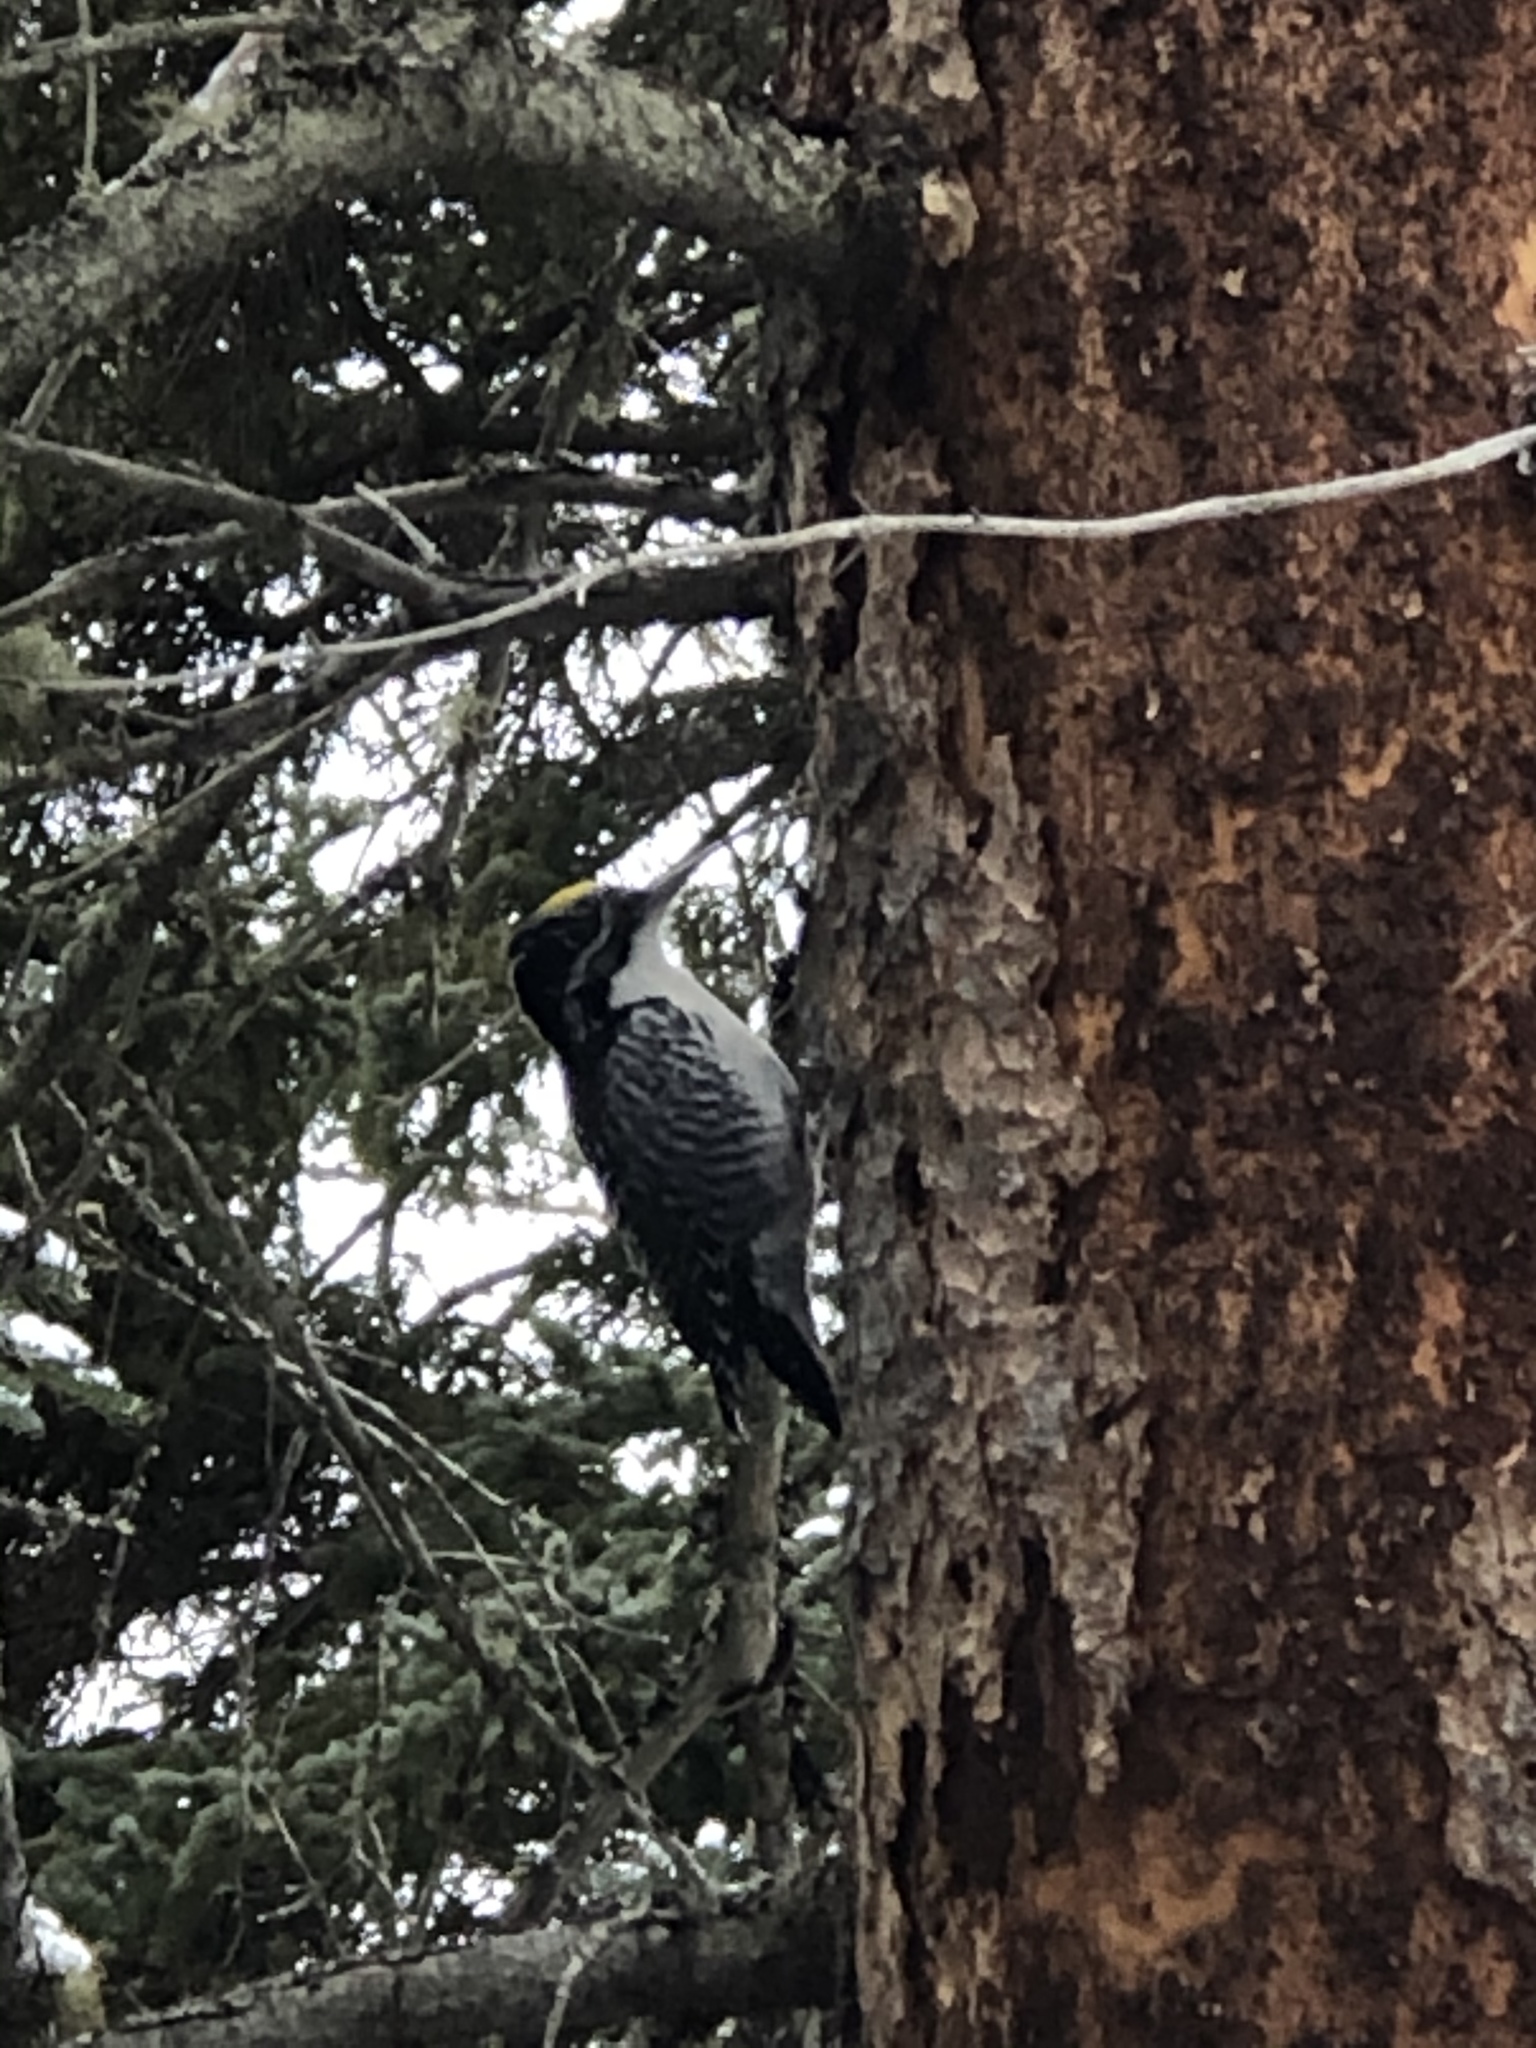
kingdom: Animalia
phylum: Chordata
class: Aves
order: Piciformes
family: Picidae
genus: Picoides
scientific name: Picoides dorsalis
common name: American three-toed woodpecker
